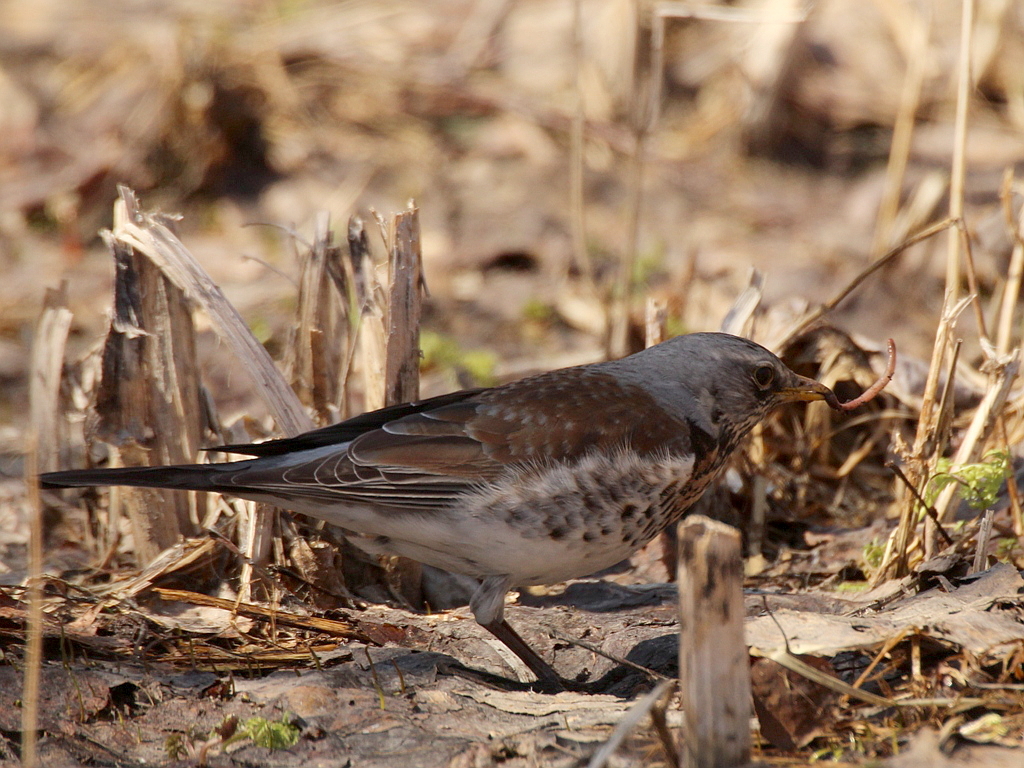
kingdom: Animalia
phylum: Chordata
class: Aves
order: Passeriformes
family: Turdidae
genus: Turdus
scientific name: Turdus pilaris
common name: Fieldfare
